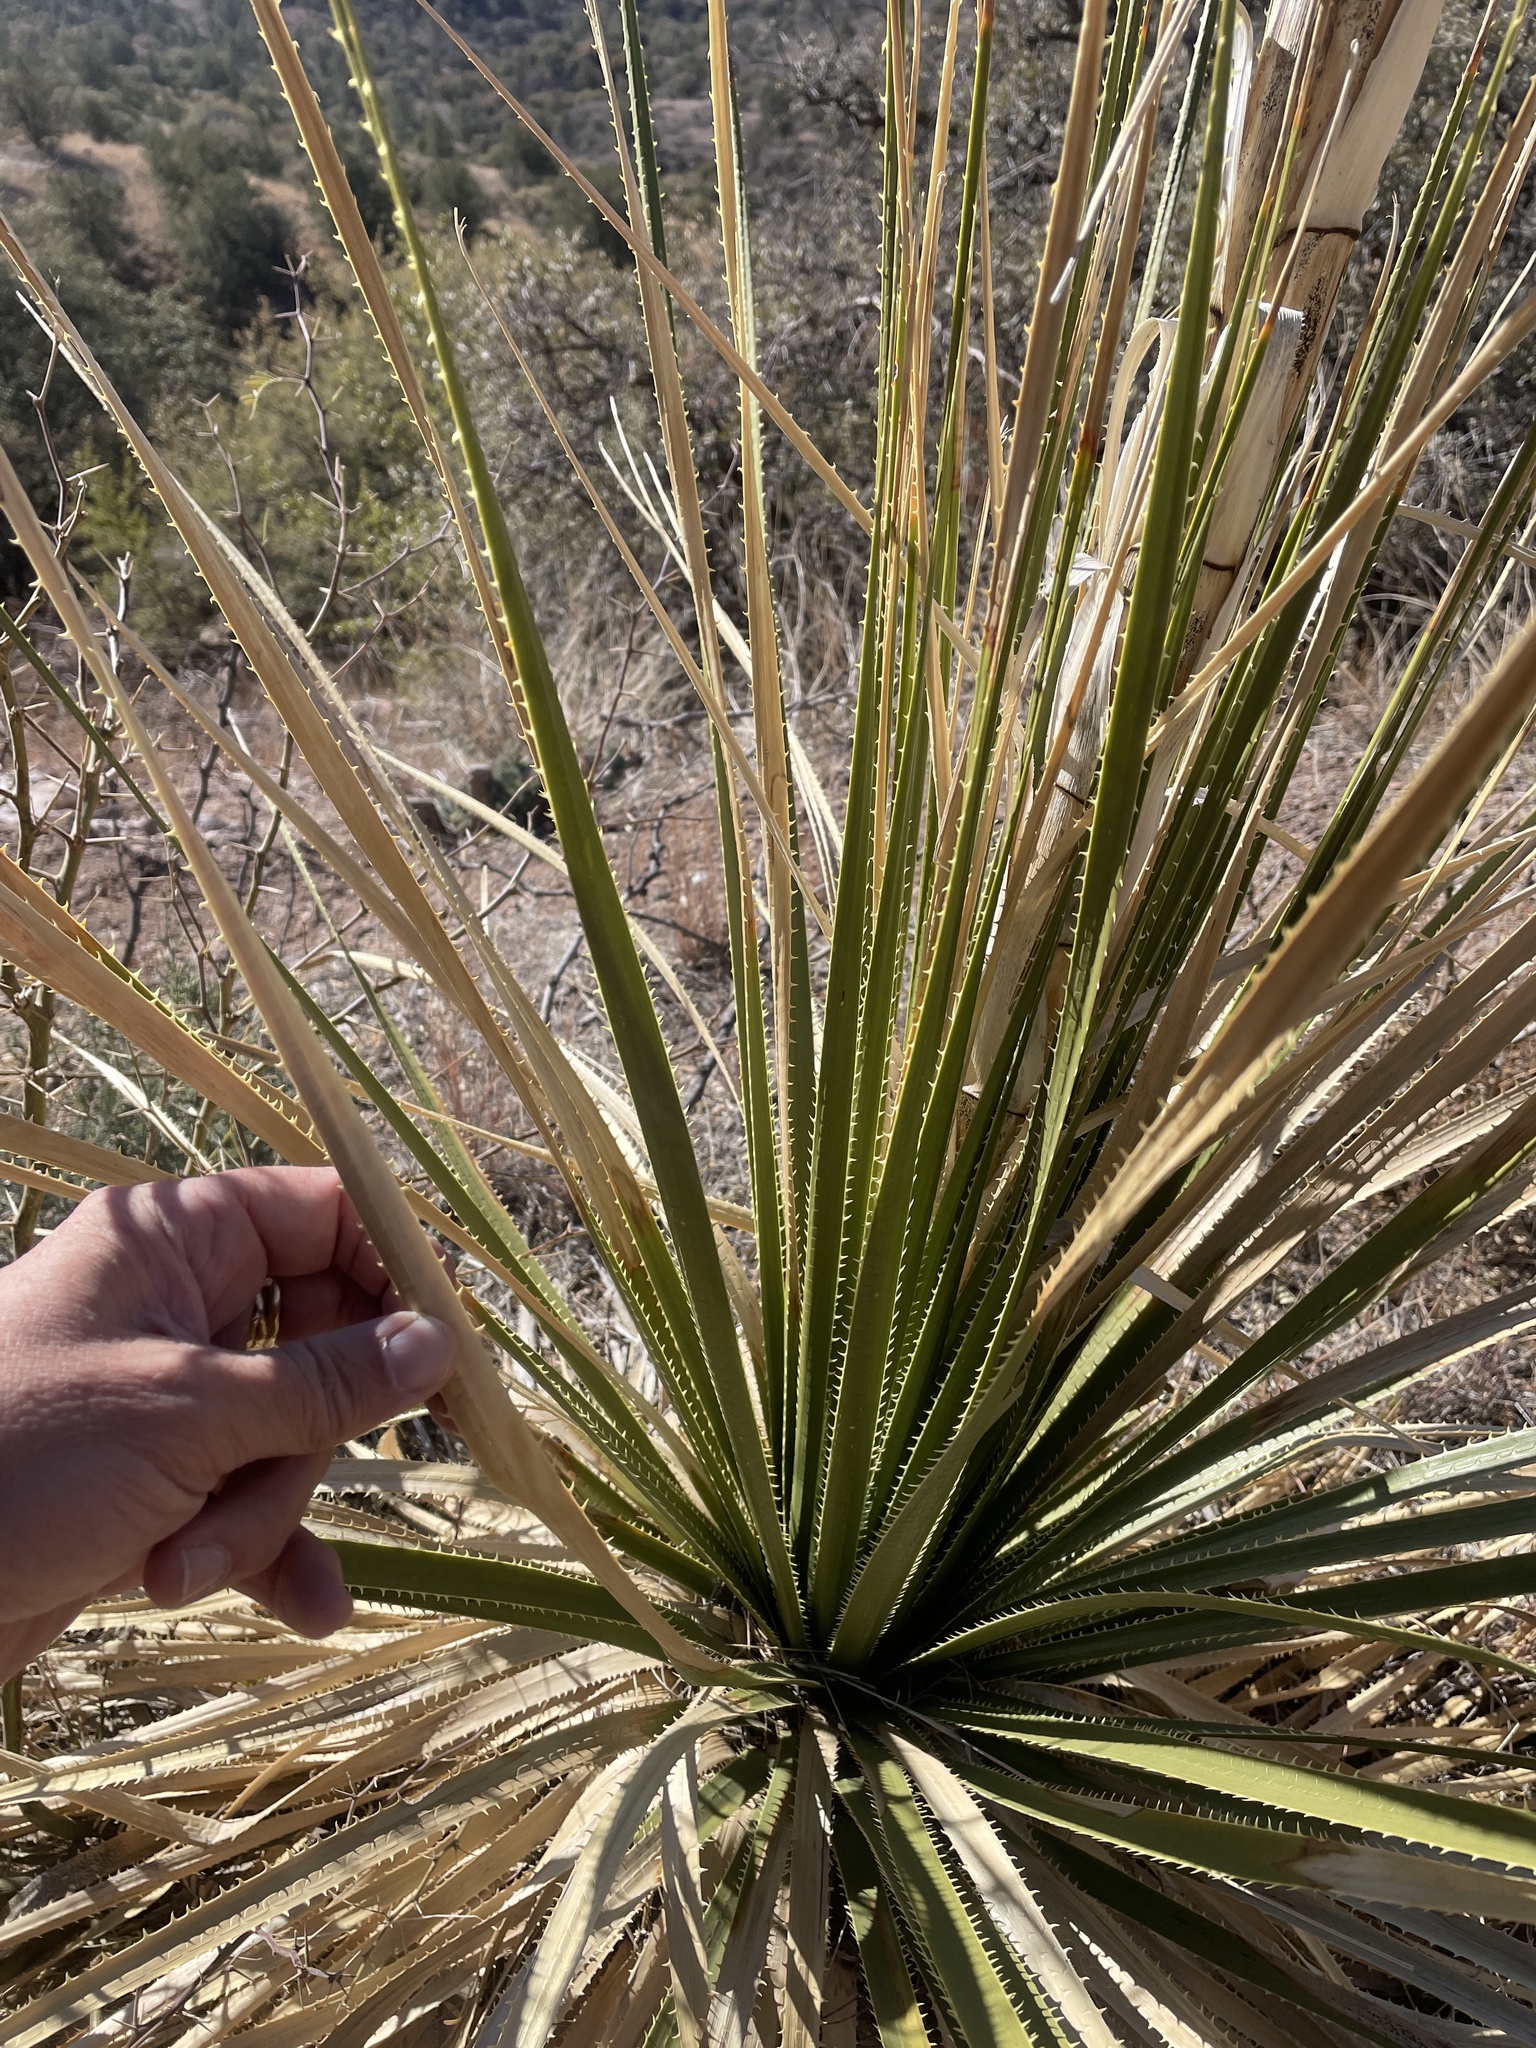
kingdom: Plantae
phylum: Tracheophyta
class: Liliopsida
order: Asparagales
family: Asparagaceae
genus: Dasylirion
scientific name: Dasylirion leiophyllum
